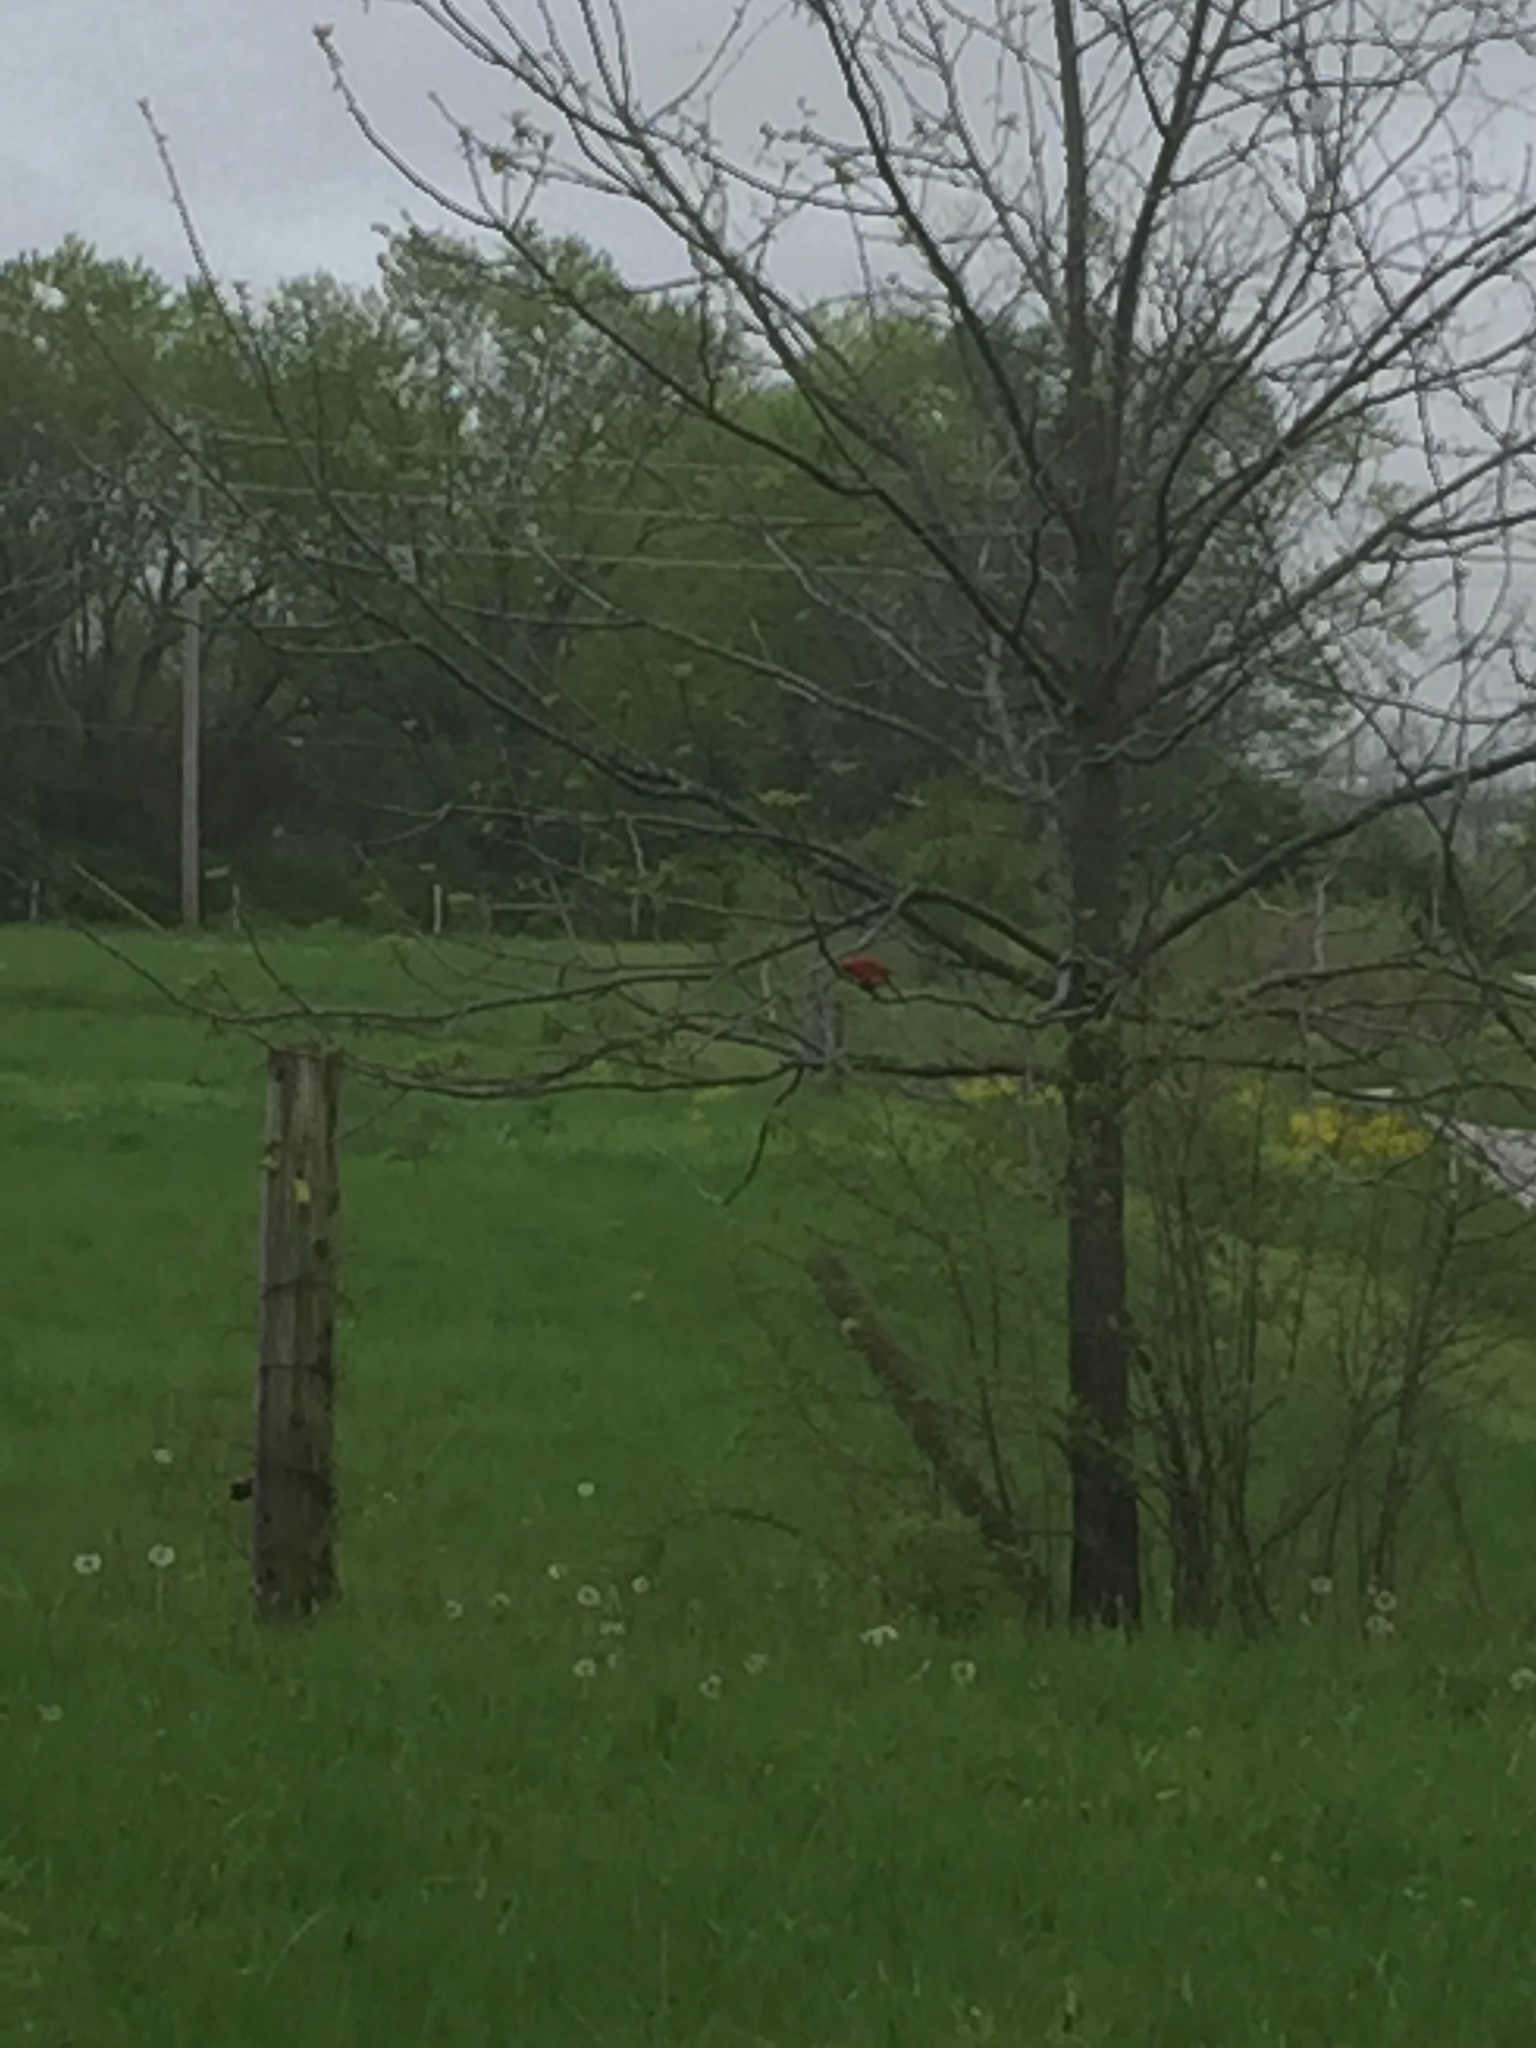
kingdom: Animalia
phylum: Chordata
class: Aves
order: Passeriformes
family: Cardinalidae
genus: Cardinalis
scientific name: Cardinalis cardinalis
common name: Northern cardinal
